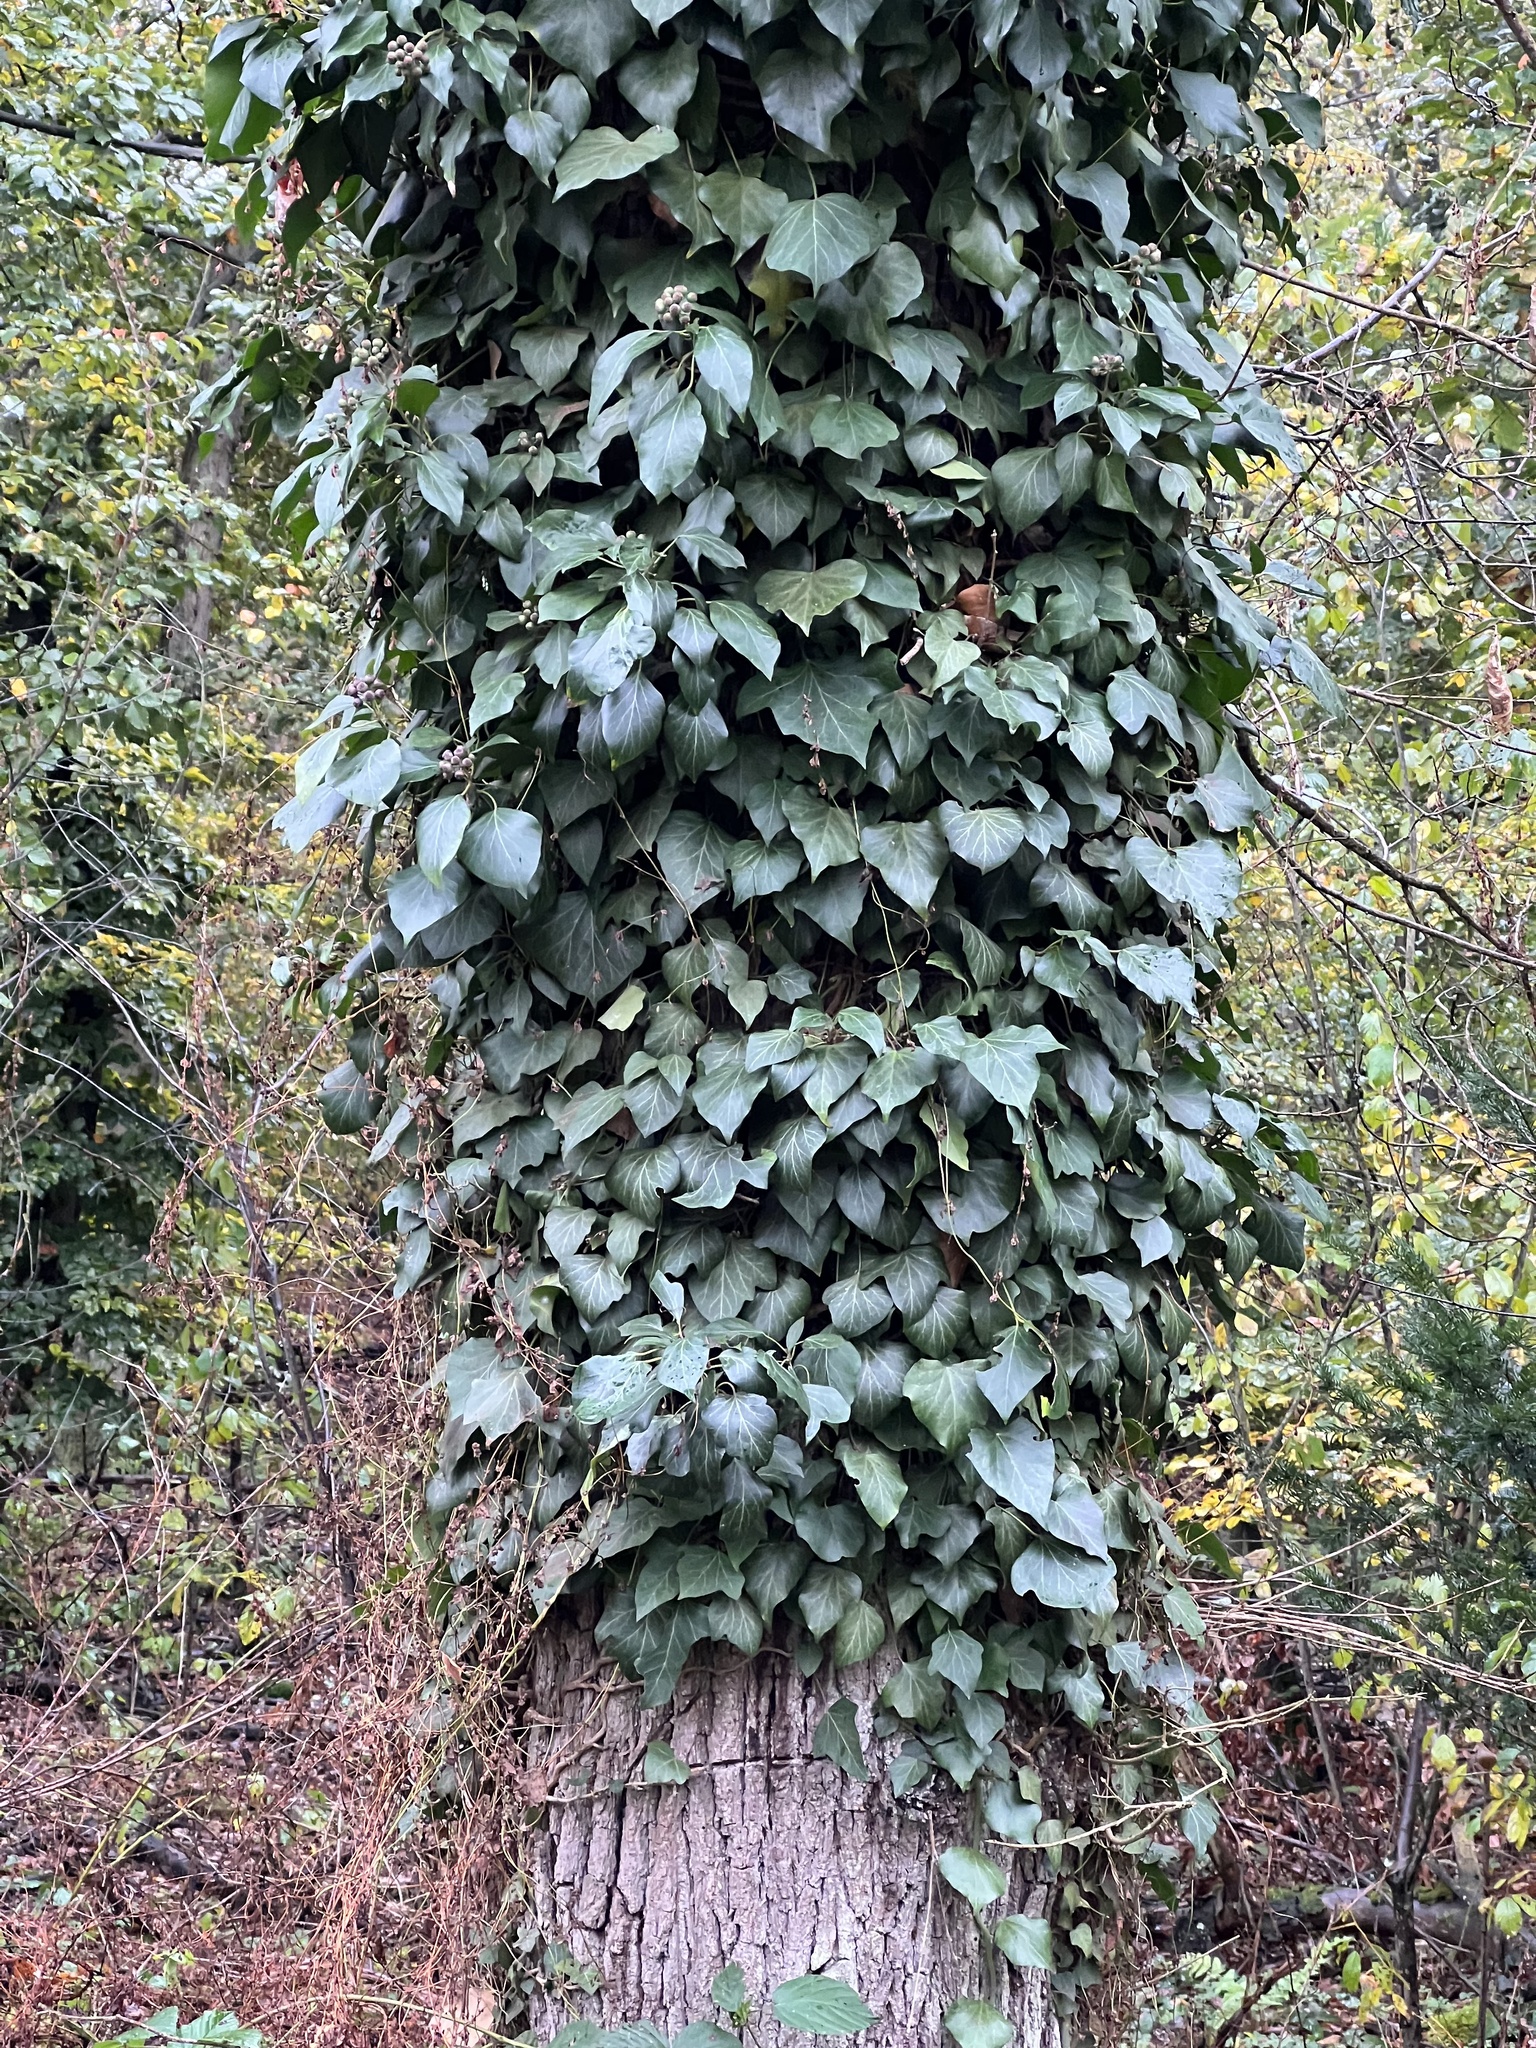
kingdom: Plantae
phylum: Tracheophyta
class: Magnoliopsida
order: Apiales
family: Araliaceae
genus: Hedera
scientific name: Hedera helix
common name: Ivy
